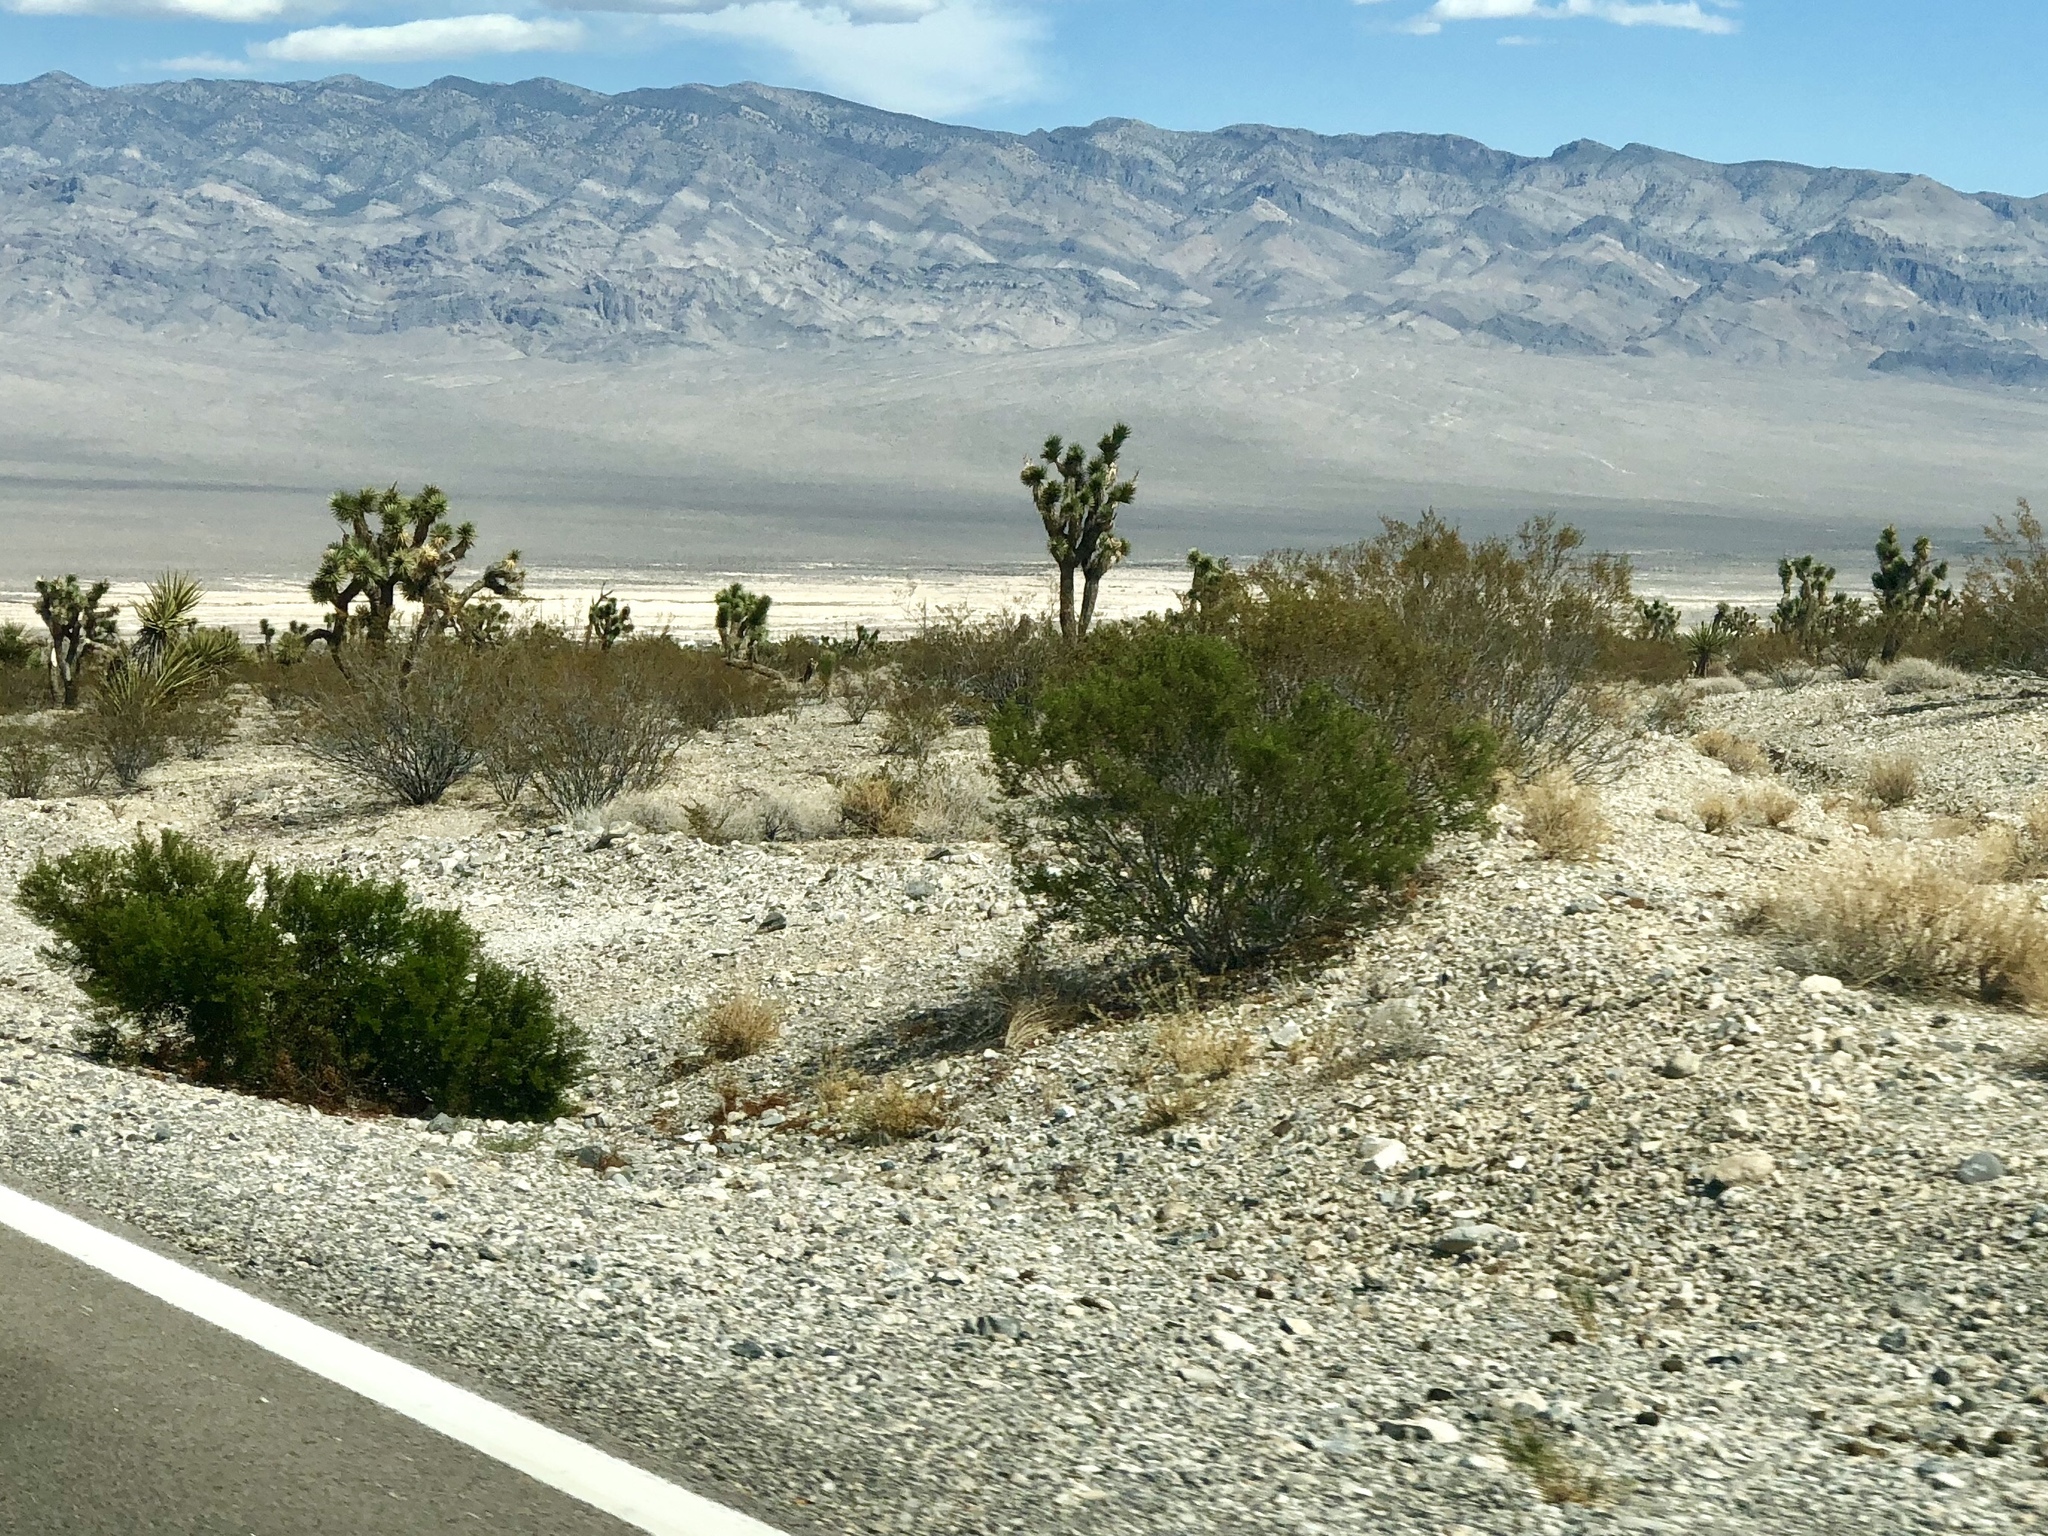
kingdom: Plantae
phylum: Tracheophyta
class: Magnoliopsida
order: Zygophyllales
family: Zygophyllaceae
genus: Larrea
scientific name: Larrea tridentata
